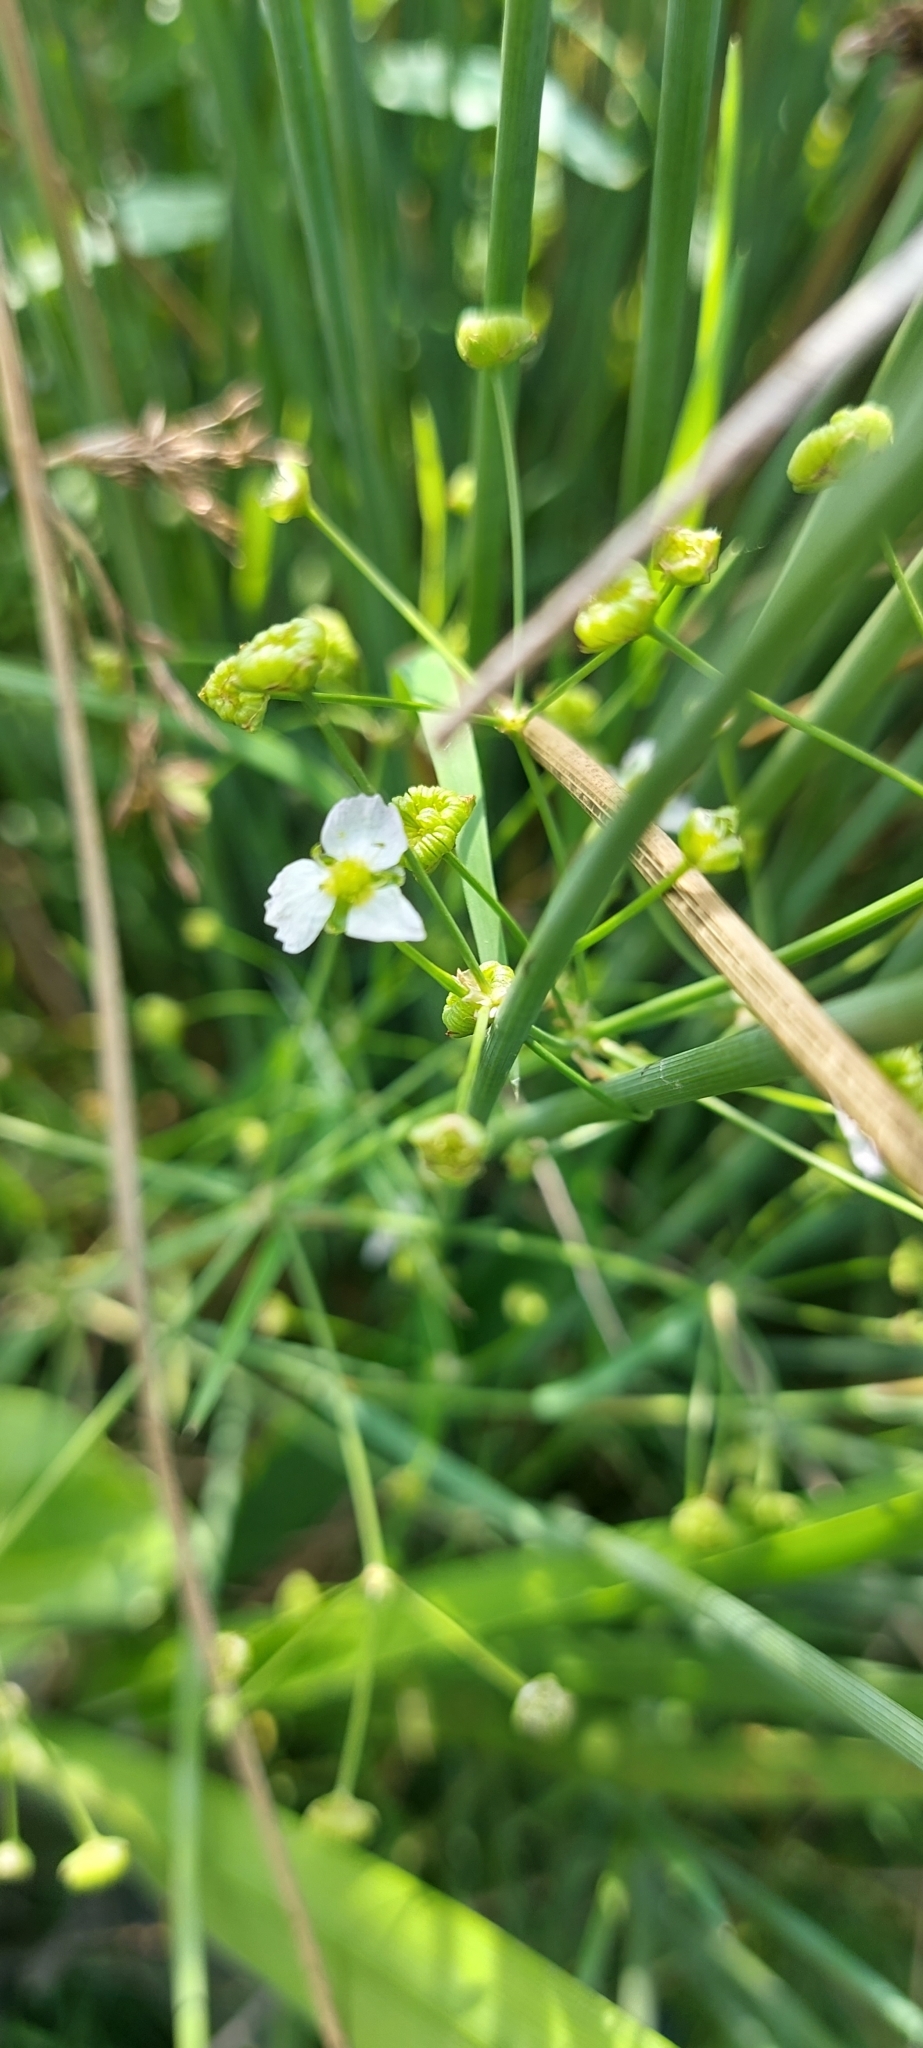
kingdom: Plantae
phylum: Tracheophyta
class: Liliopsida
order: Alismatales
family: Alismataceae
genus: Alisma
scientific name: Alisma plantago-aquatica
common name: Water-plantain
